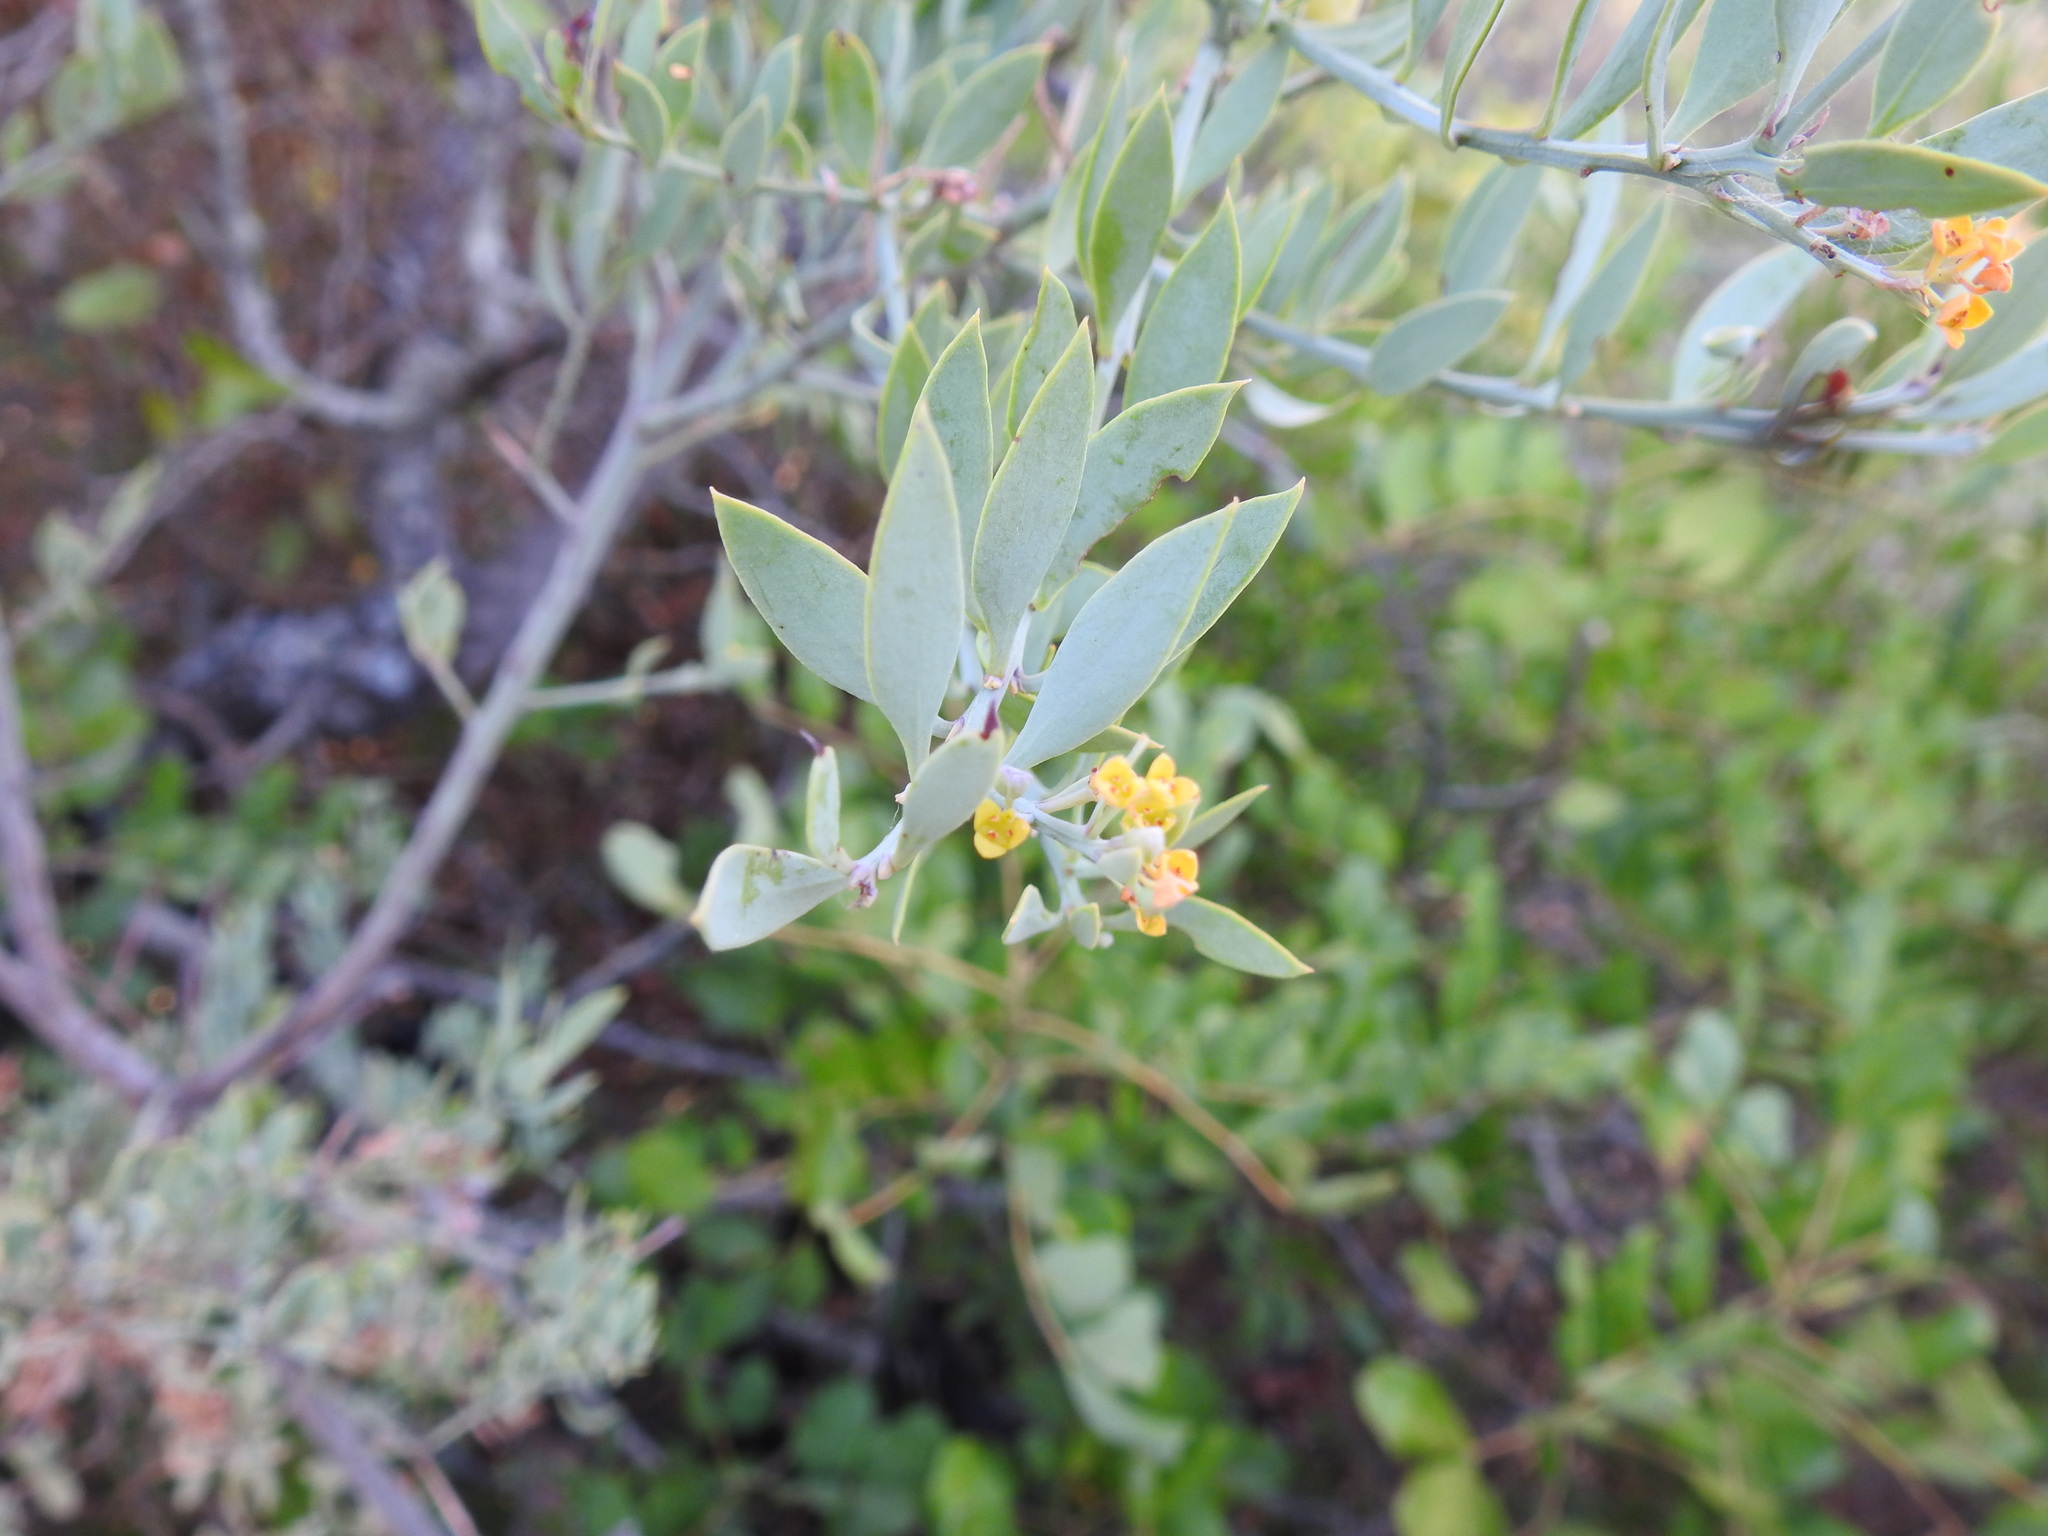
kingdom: Plantae
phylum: Tracheophyta
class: Magnoliopsida
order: Santalales
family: Santalaceae
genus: Osyris
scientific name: Osyris lanceolata
